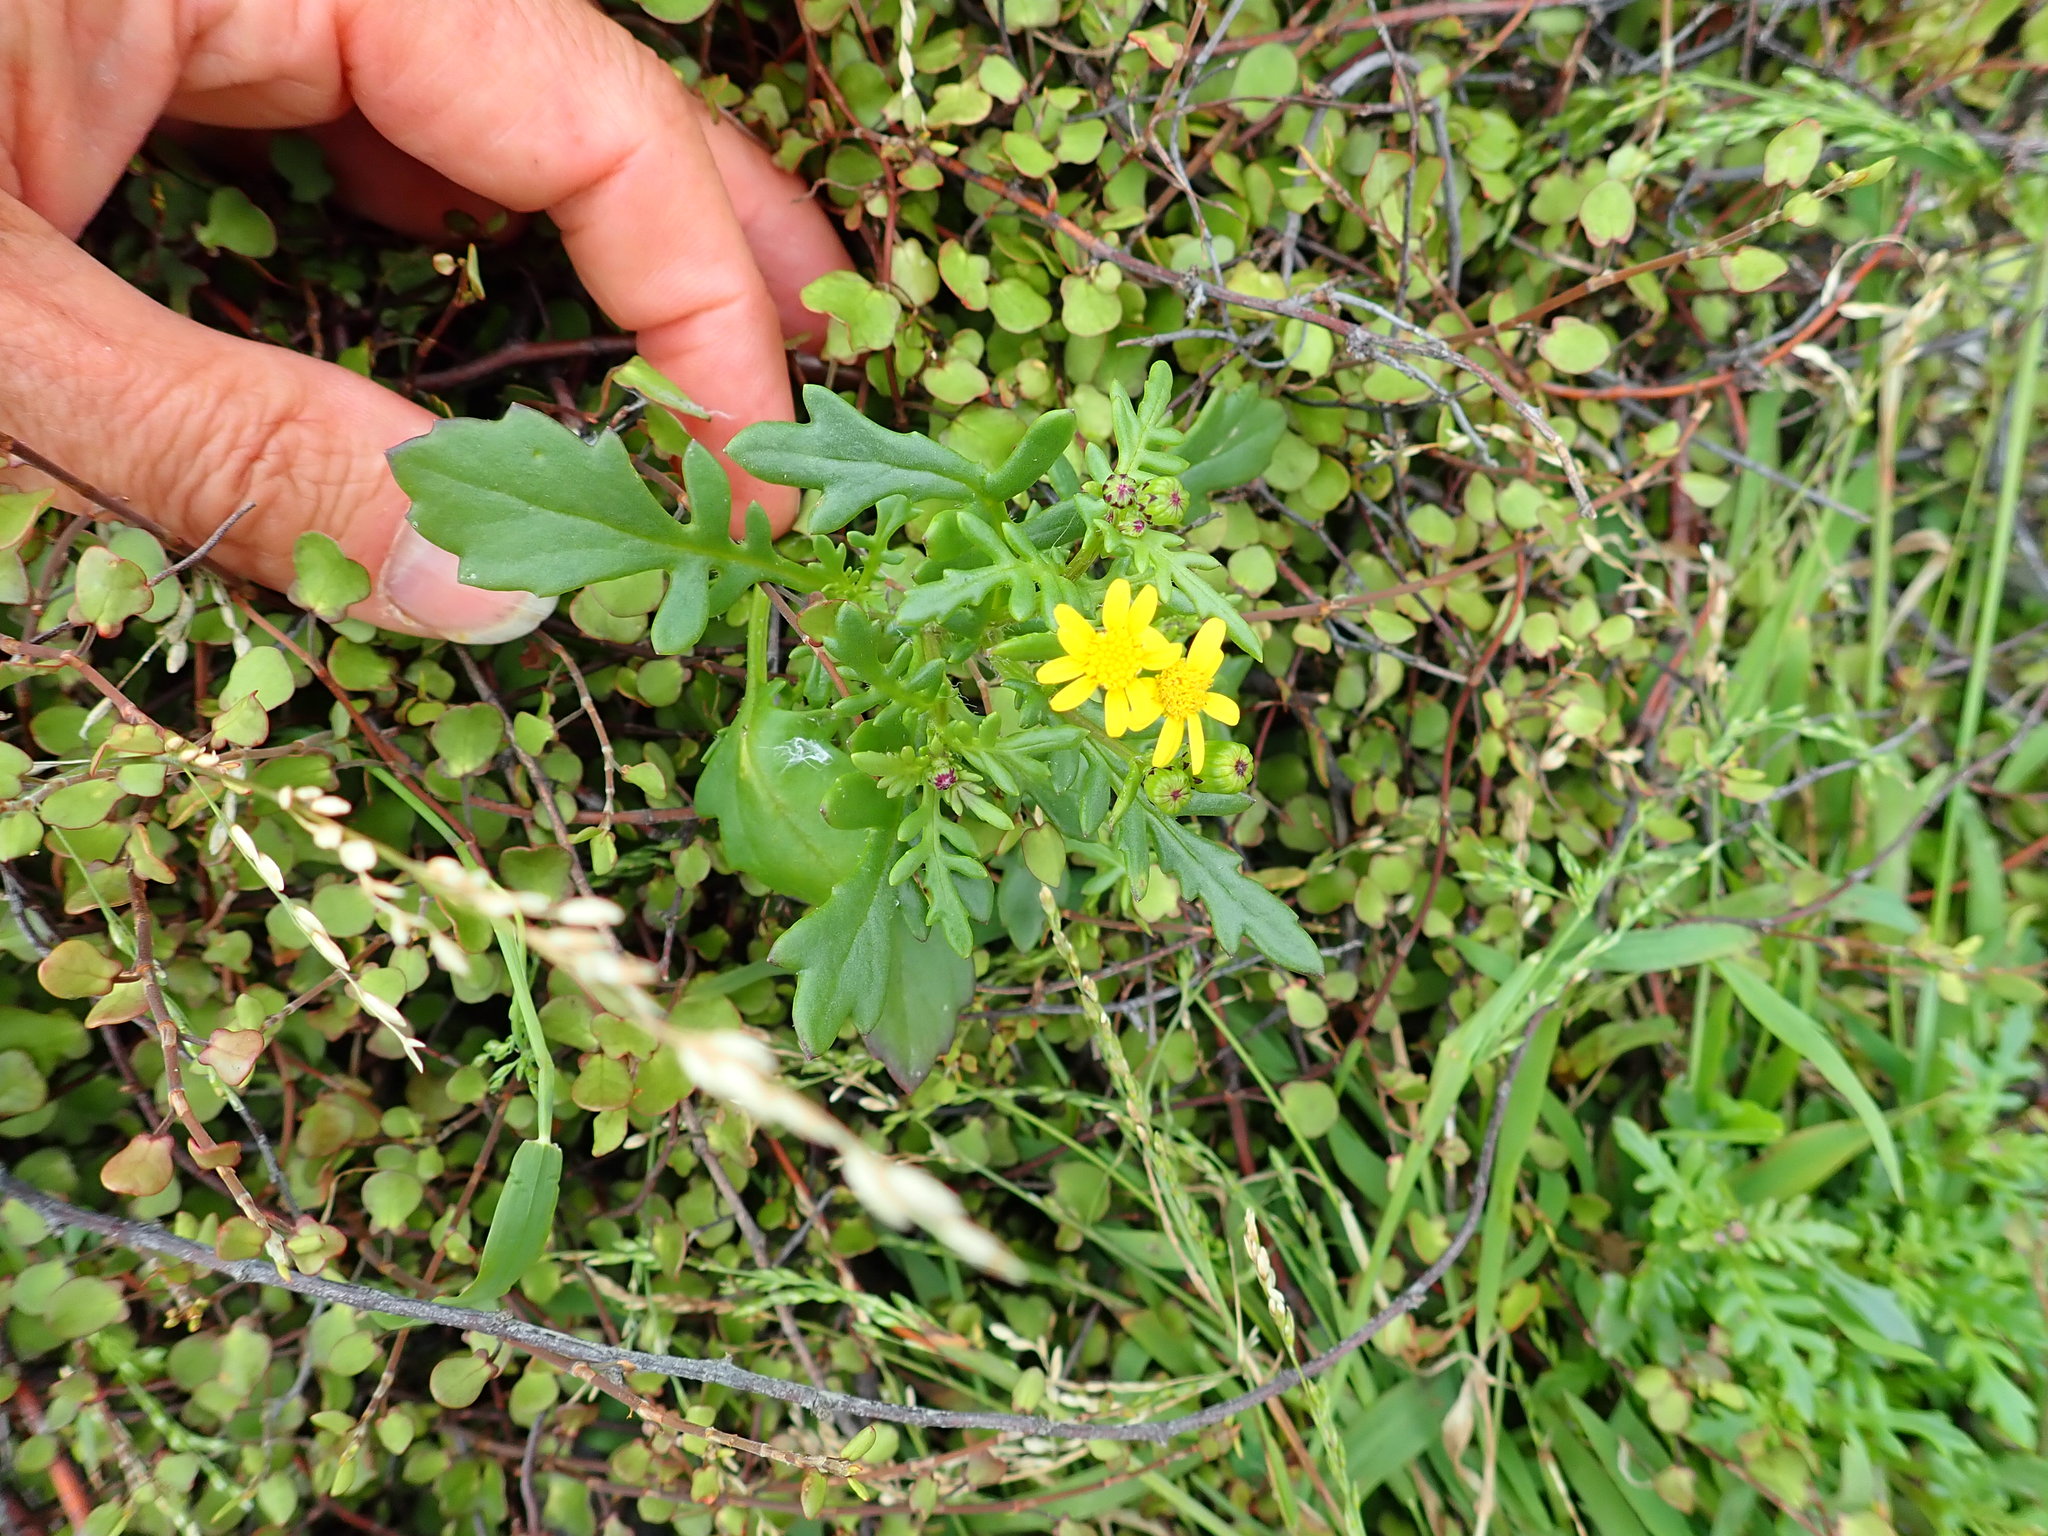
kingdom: Plantae
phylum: Tracheophyta
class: Magnoliopsida
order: Asterales
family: Asteraceae
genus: Senecio
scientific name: Senecio lautus
